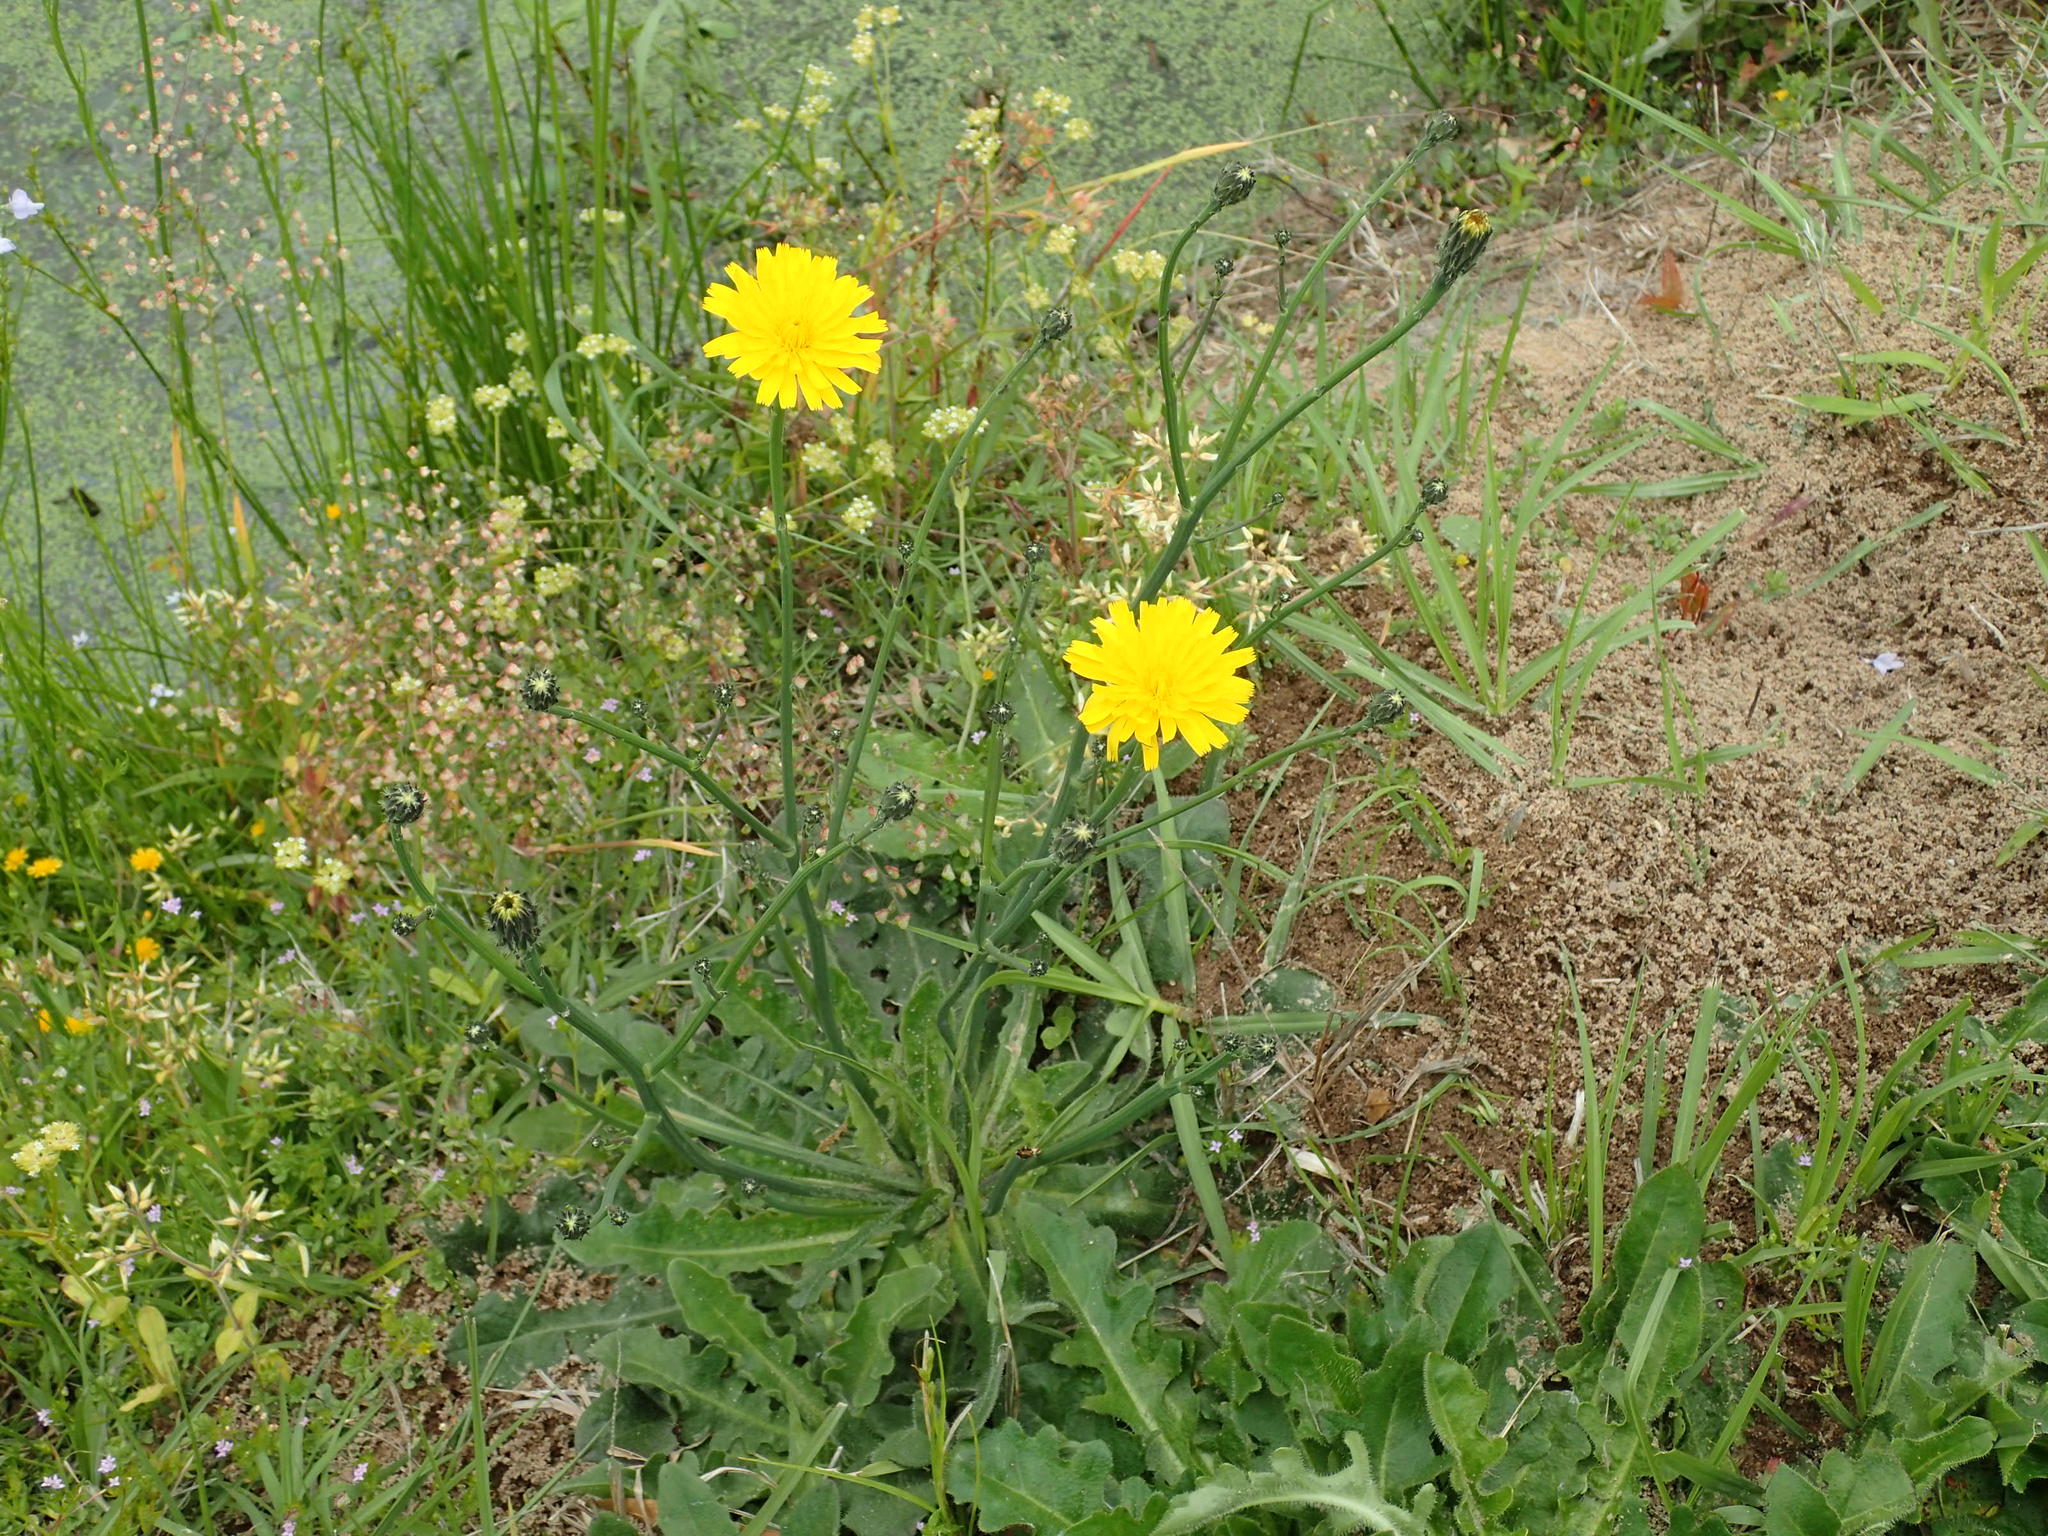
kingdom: Plantae
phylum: Tracheophyta
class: Magnoliopsida
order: Asterales
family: Asteraceae
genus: Hypochaeris
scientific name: Hypochaeris radicata
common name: Flatweed
